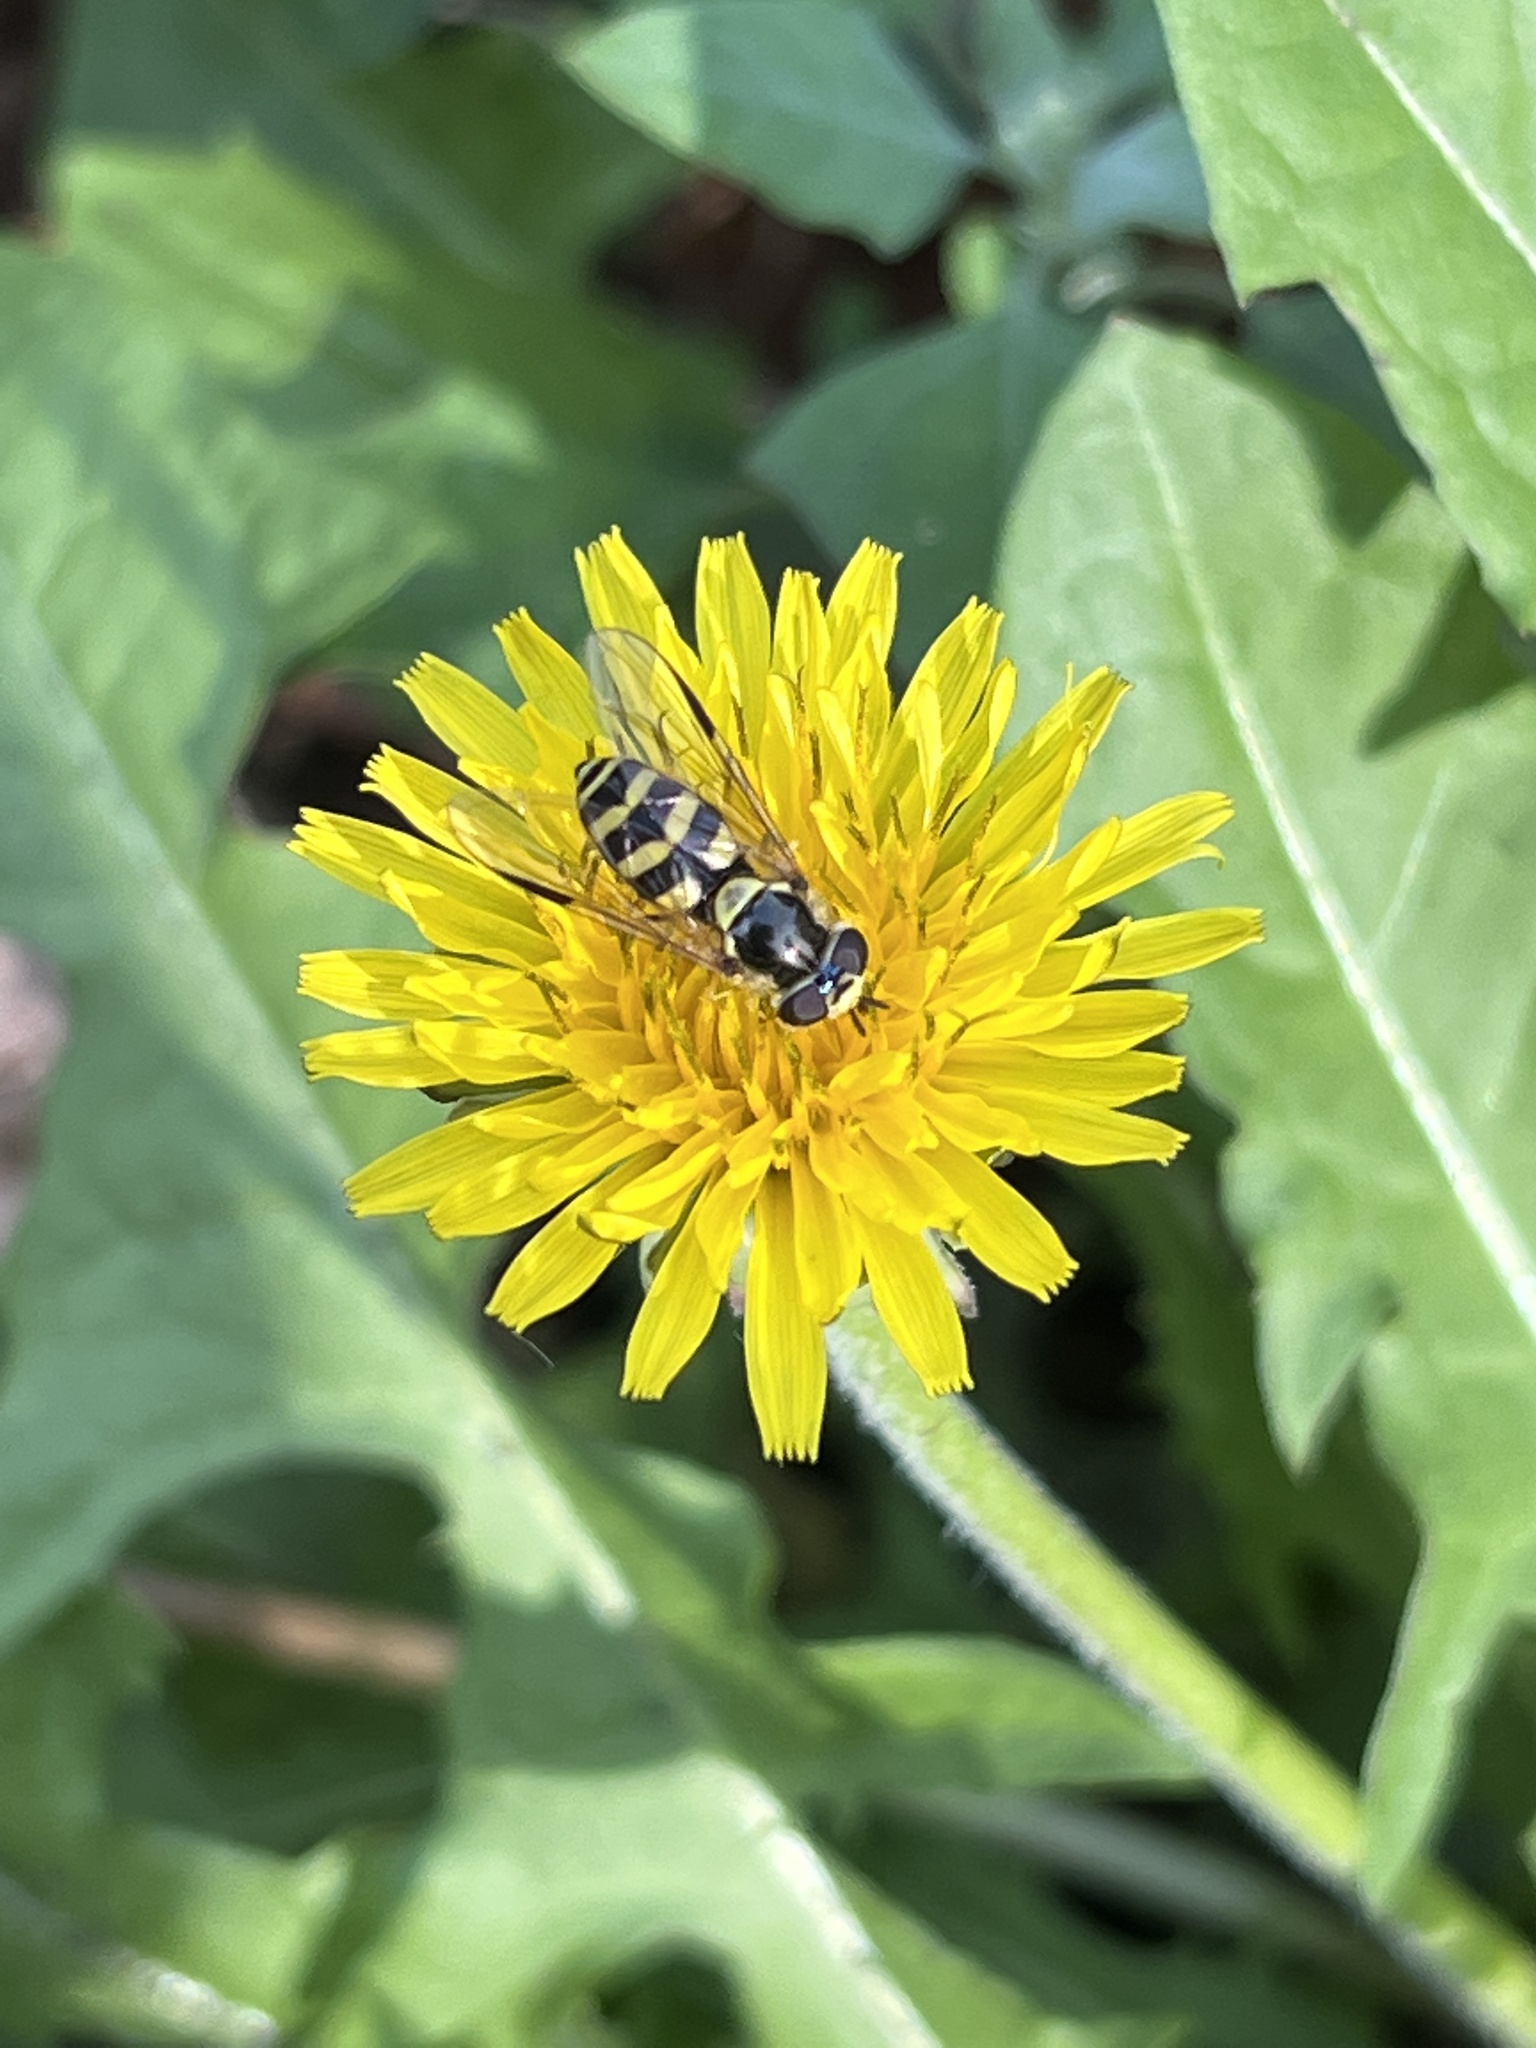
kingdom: Animalia
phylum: Arthropoda
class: Insecta
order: Diptera
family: Syrphidae
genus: Dasysyrphus
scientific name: Dasysyrphus albostriatus
